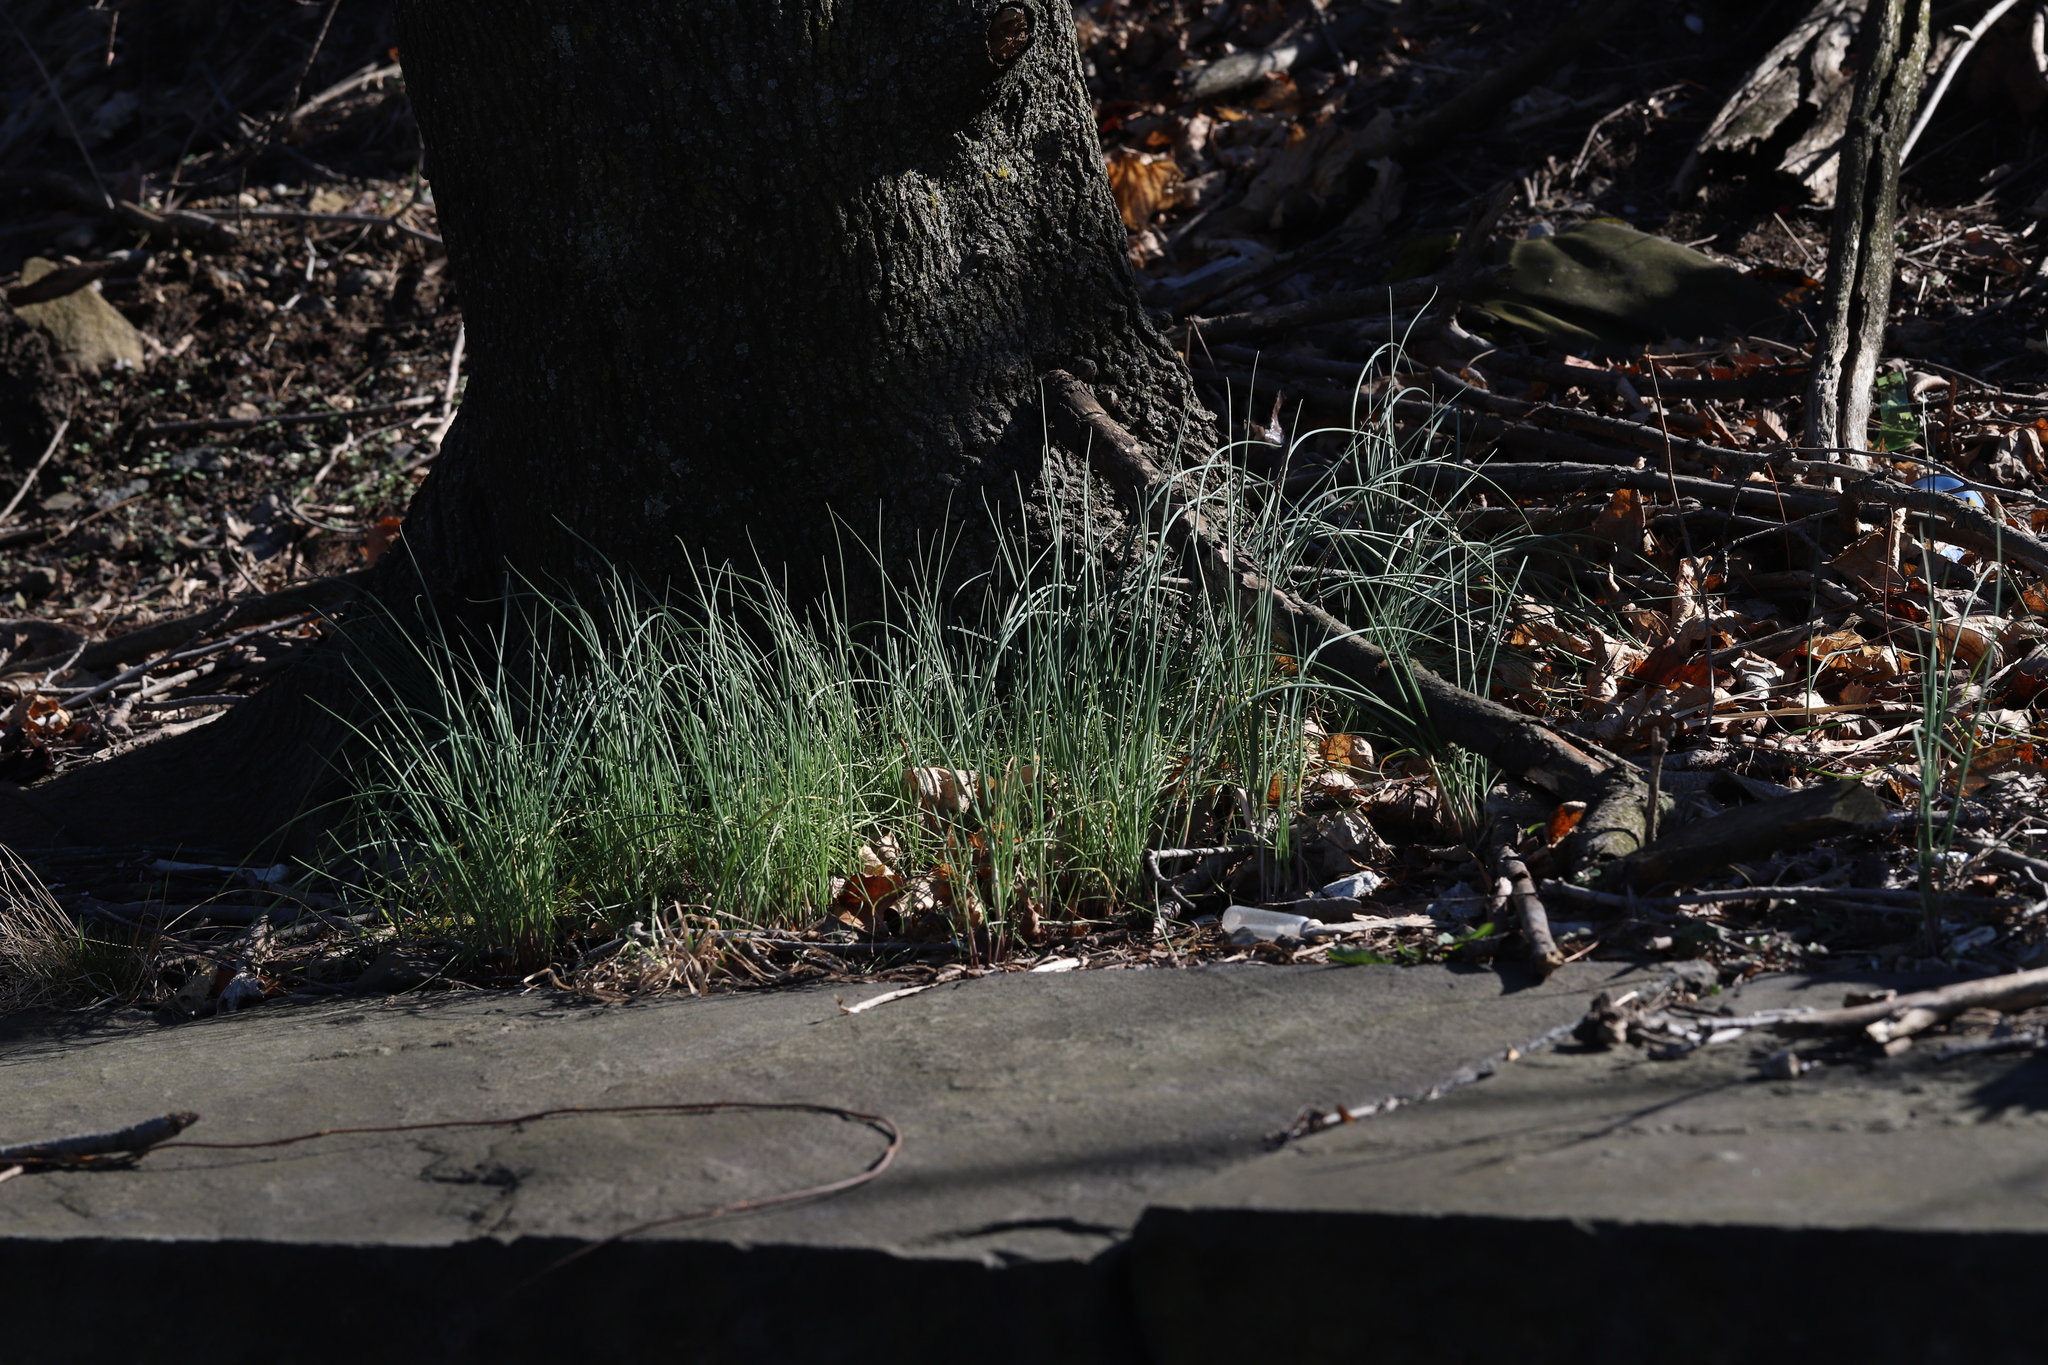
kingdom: Plantae
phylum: Tracheophyta
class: Liliopsida
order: Asparagales
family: Amaryllidaceae
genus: Allium
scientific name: Allium vineale
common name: Crow garlic
